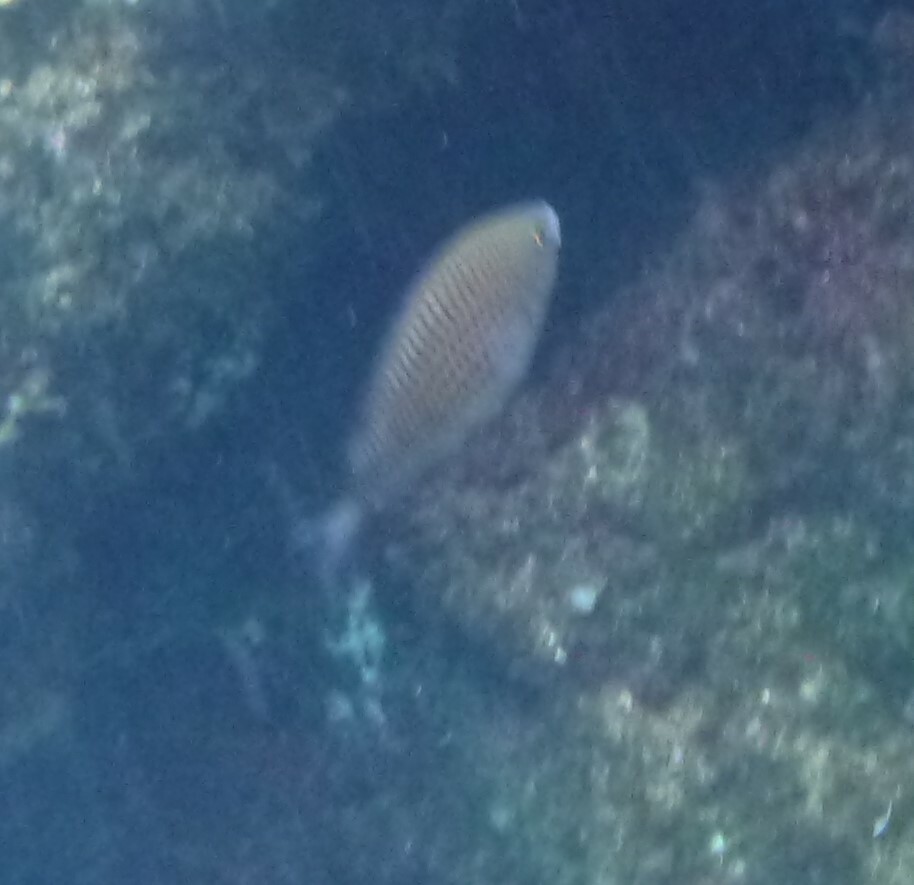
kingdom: Animalia
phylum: Chordata
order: Perciformes
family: Pomacentridae
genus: Chromis
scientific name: Chromis chromis
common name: Damselfish
